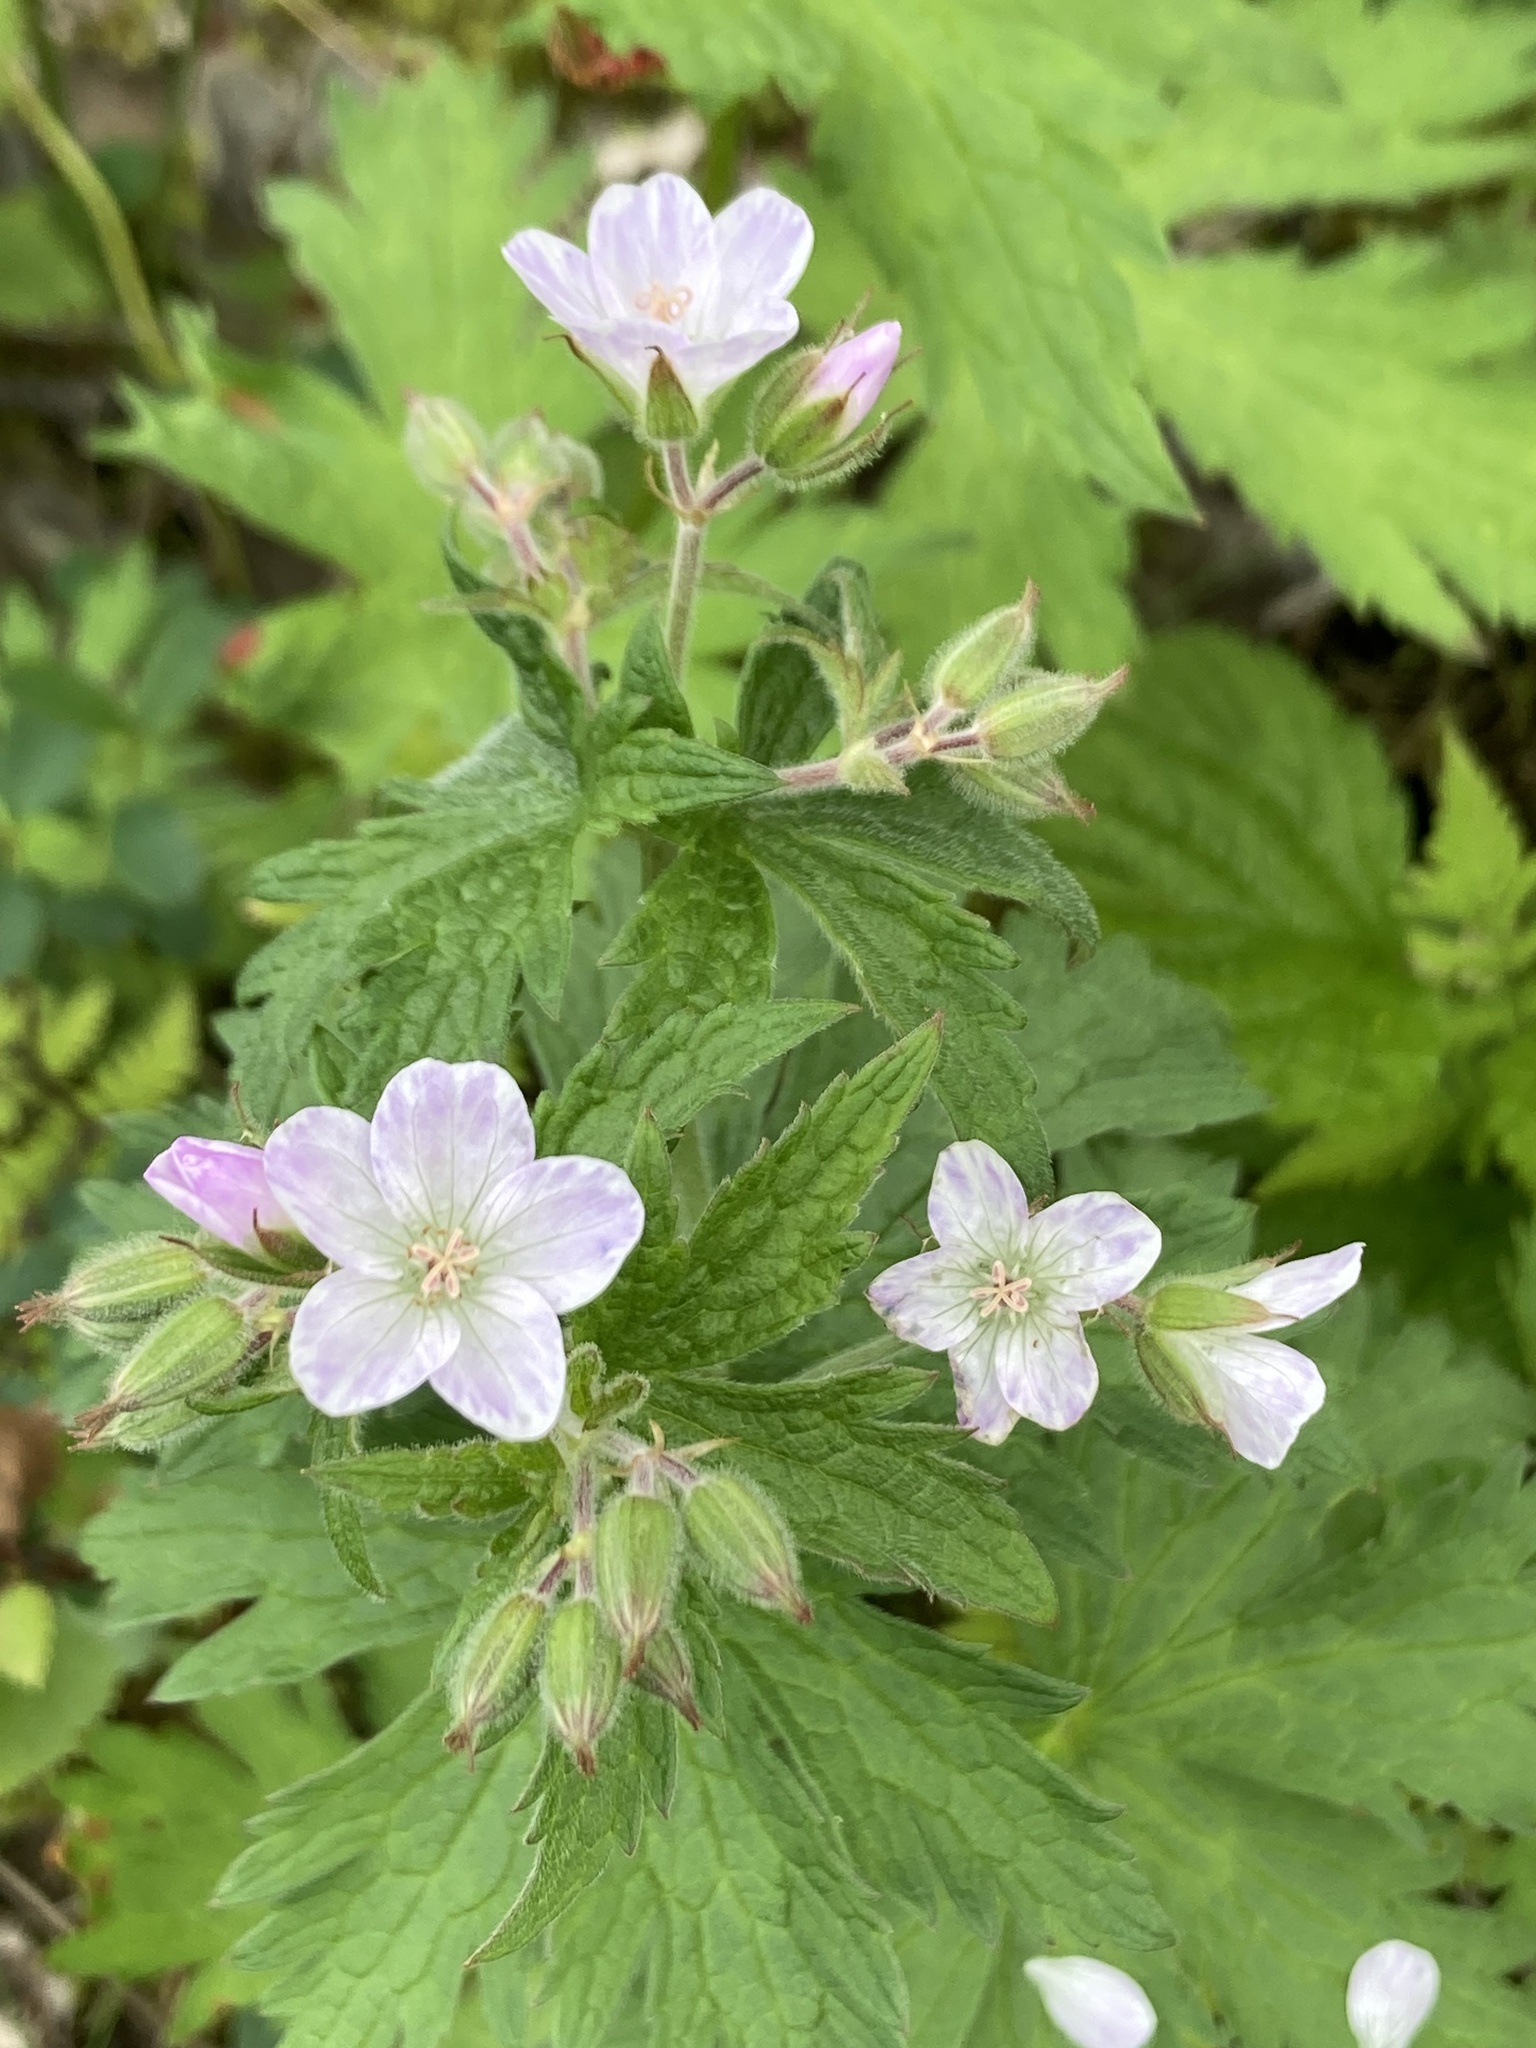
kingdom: Plantae
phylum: Tracheophyta
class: Magnoliopsida
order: Geraniales
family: Geraniaceae
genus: Geranium
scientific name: Geranium sylvaticum
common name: Wood crane's-bill
